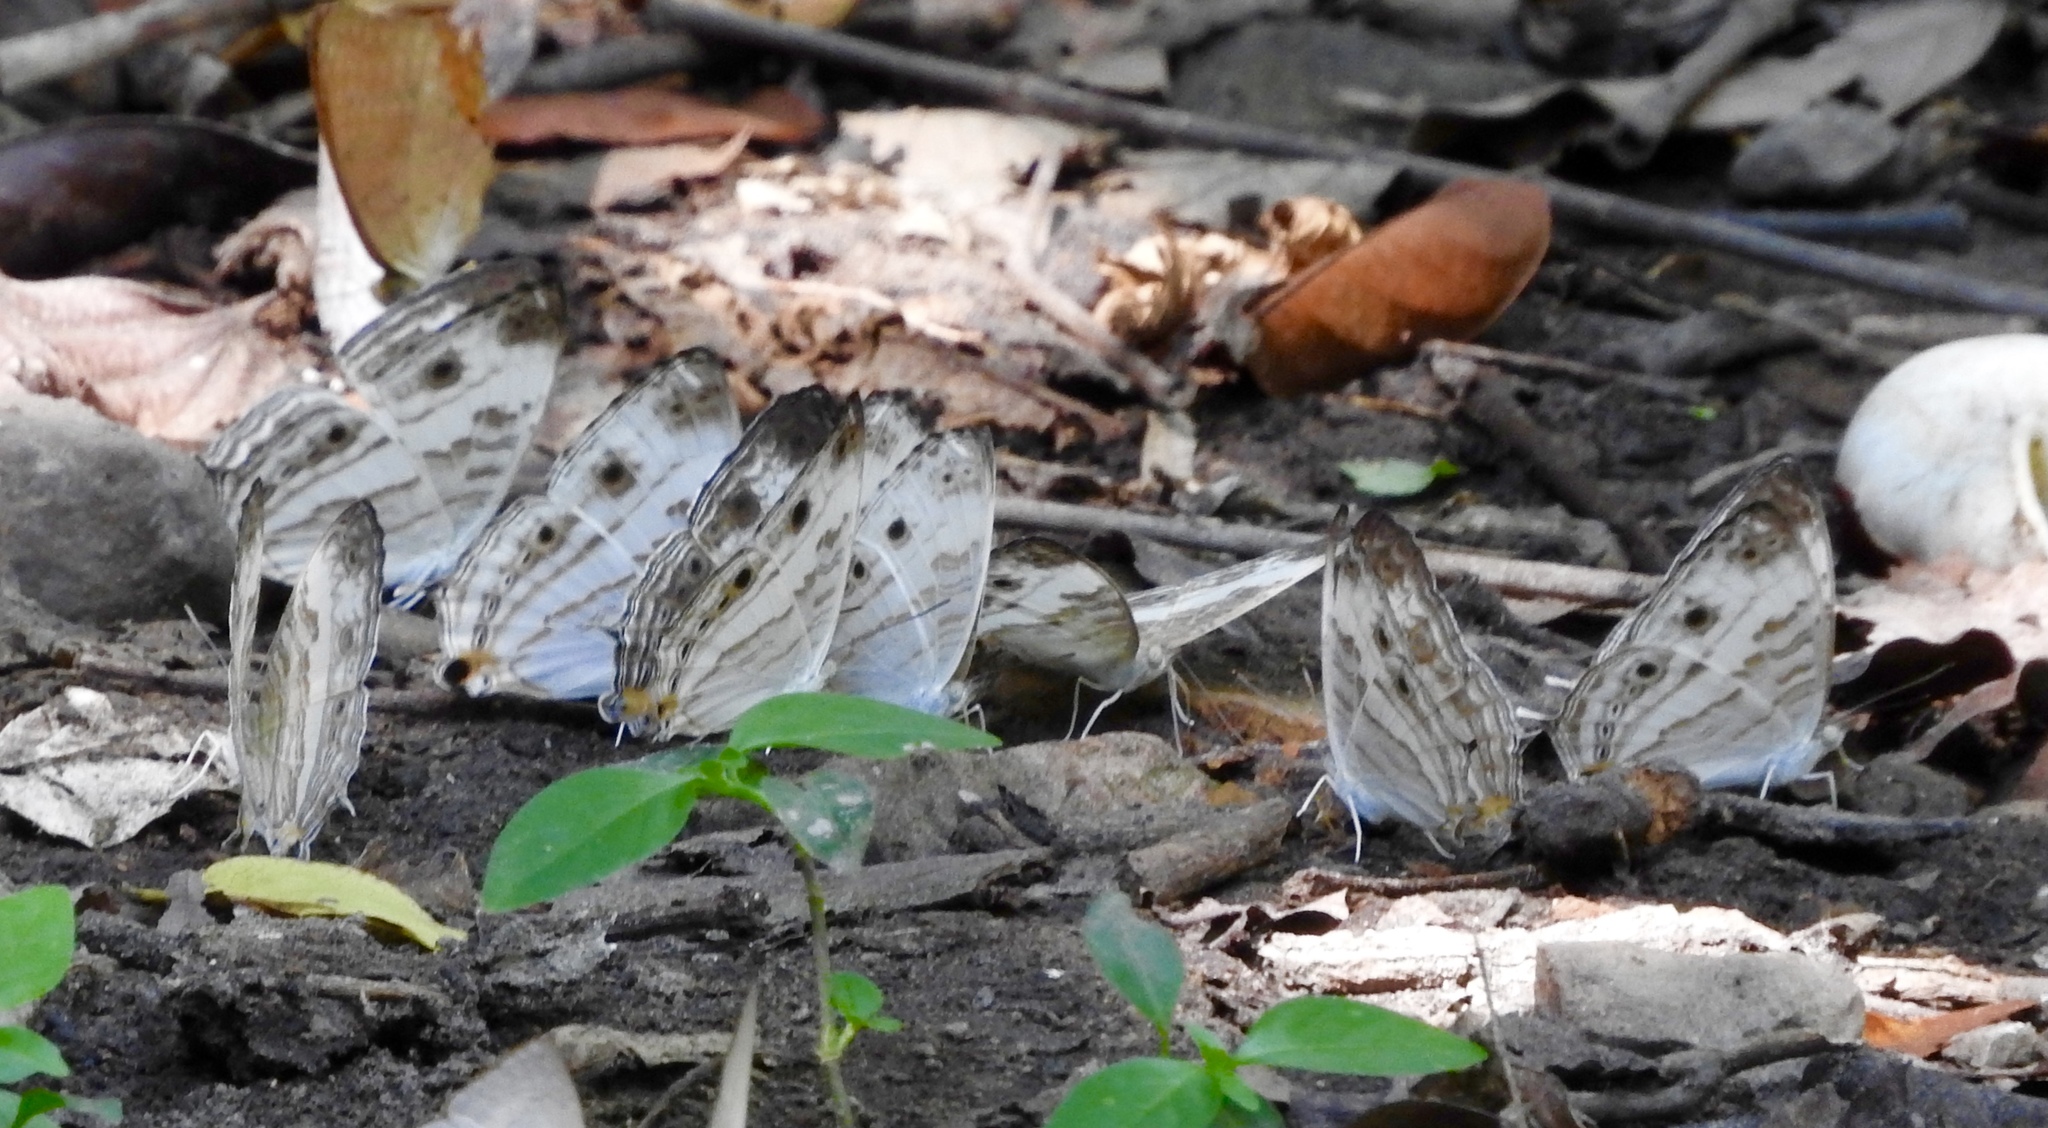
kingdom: Animalia
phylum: Arthropoda
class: Insecta
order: Lepidoptera
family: Nymphalidae
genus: Cyrestis
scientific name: Cyrestis cocles
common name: Marbled map
